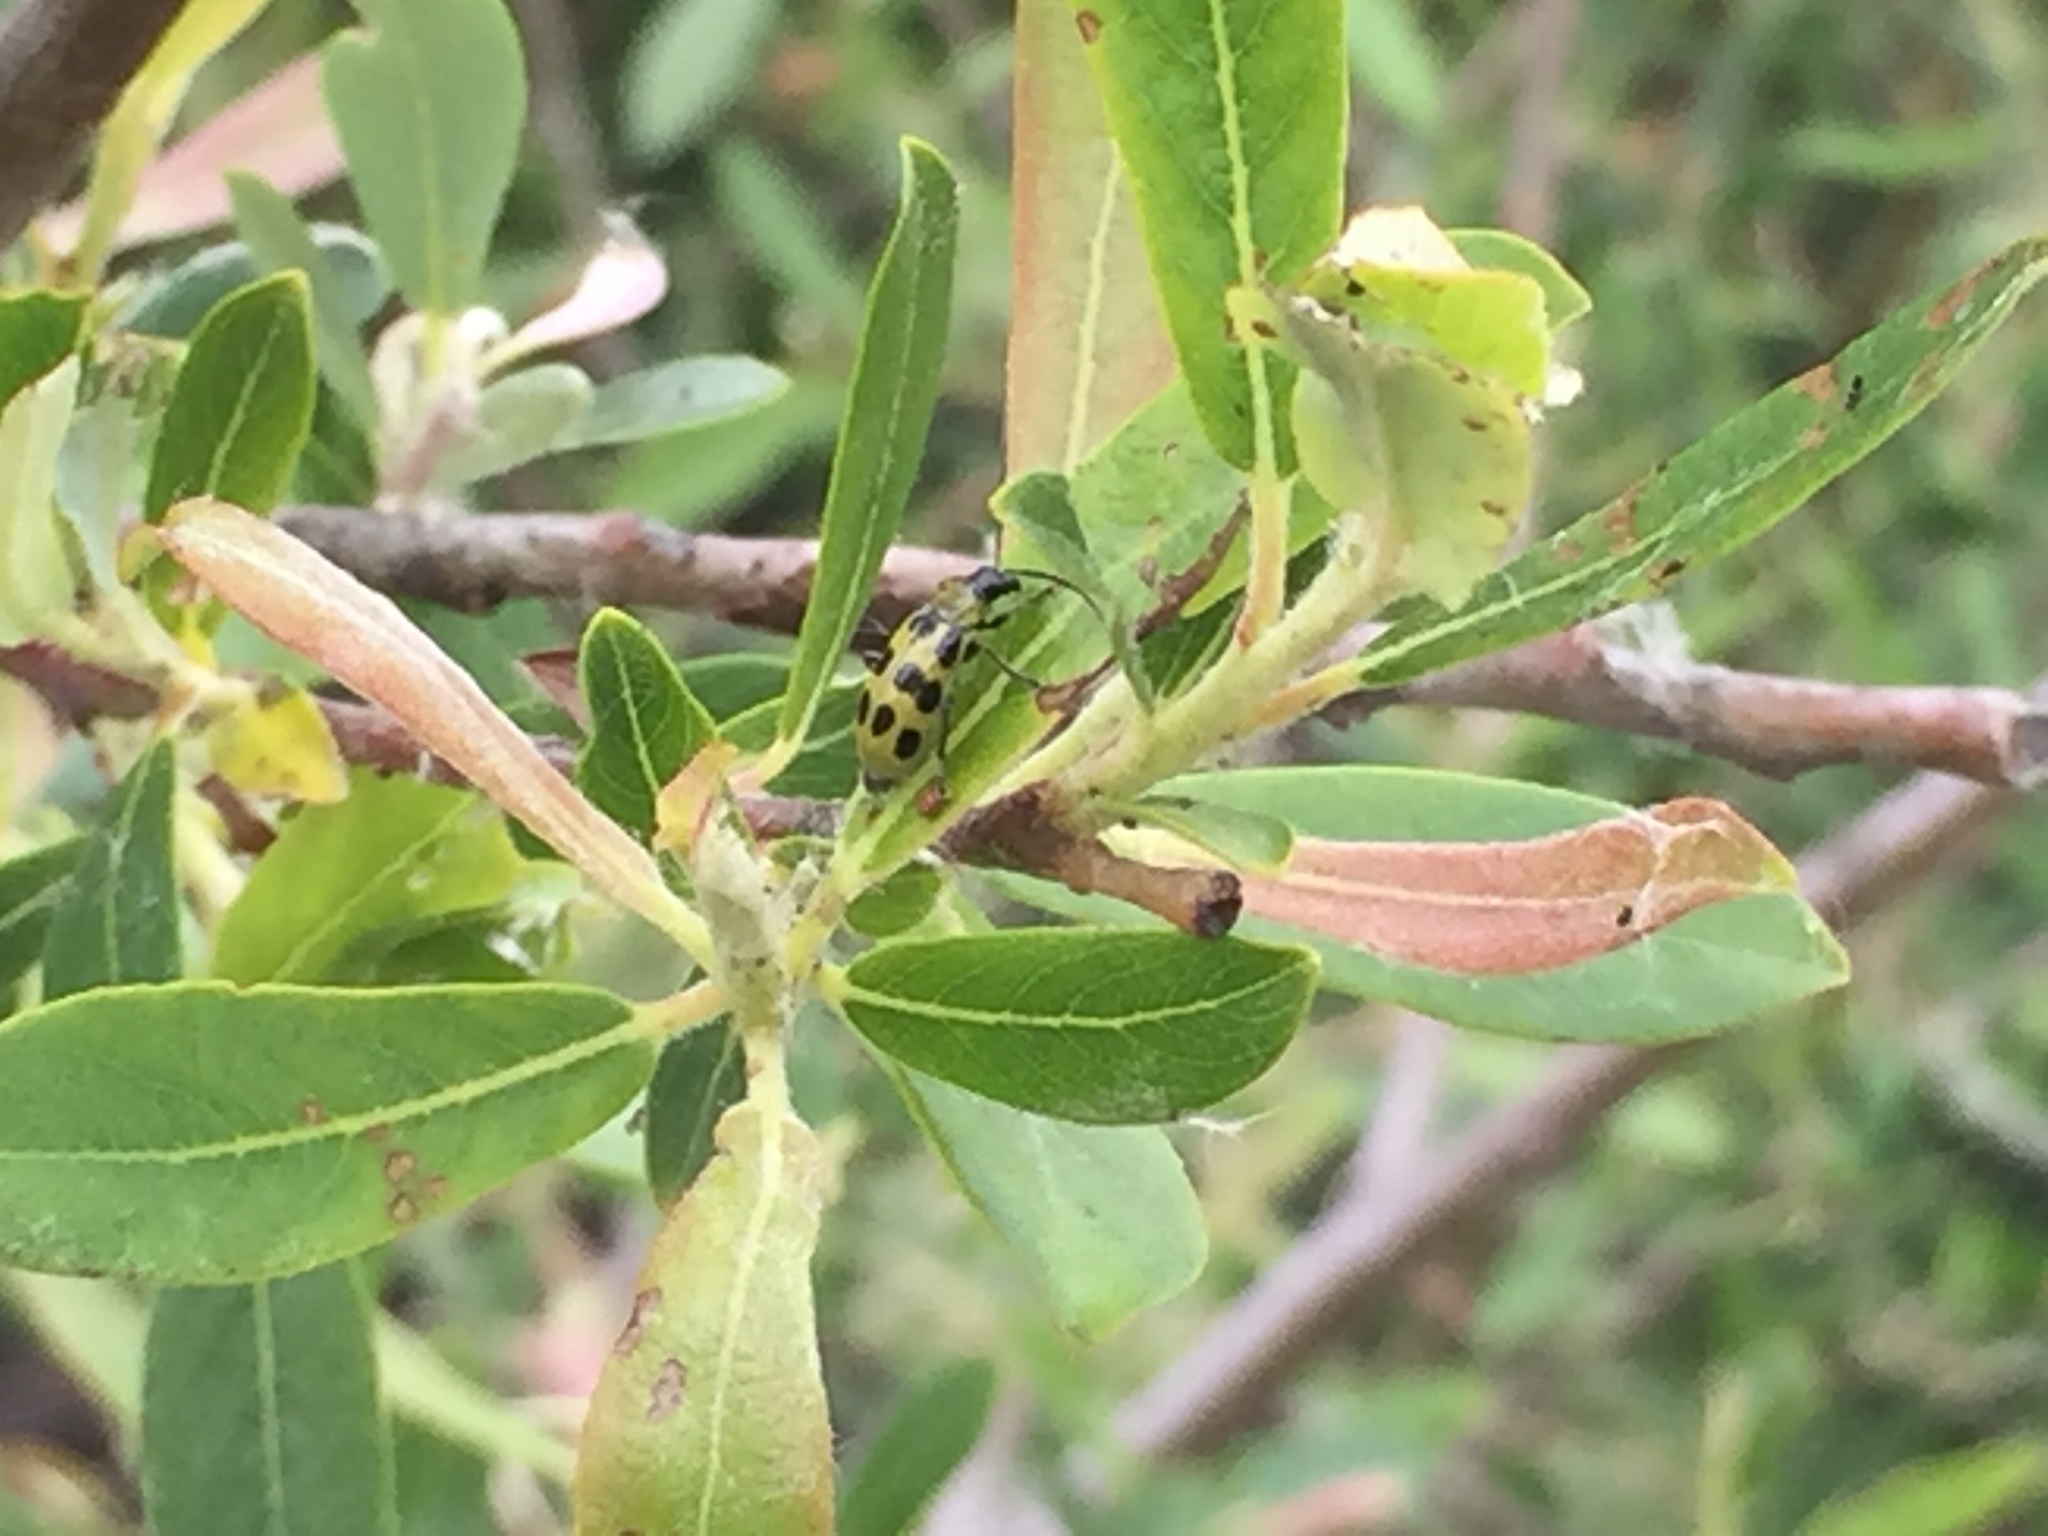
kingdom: Animalia
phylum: Arthropoda
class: Insecta
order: Coleoptera
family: Chrysomelidae
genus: Diabrotica
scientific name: Diabrotica undecimpunctata
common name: Spotted cucumber beetle
